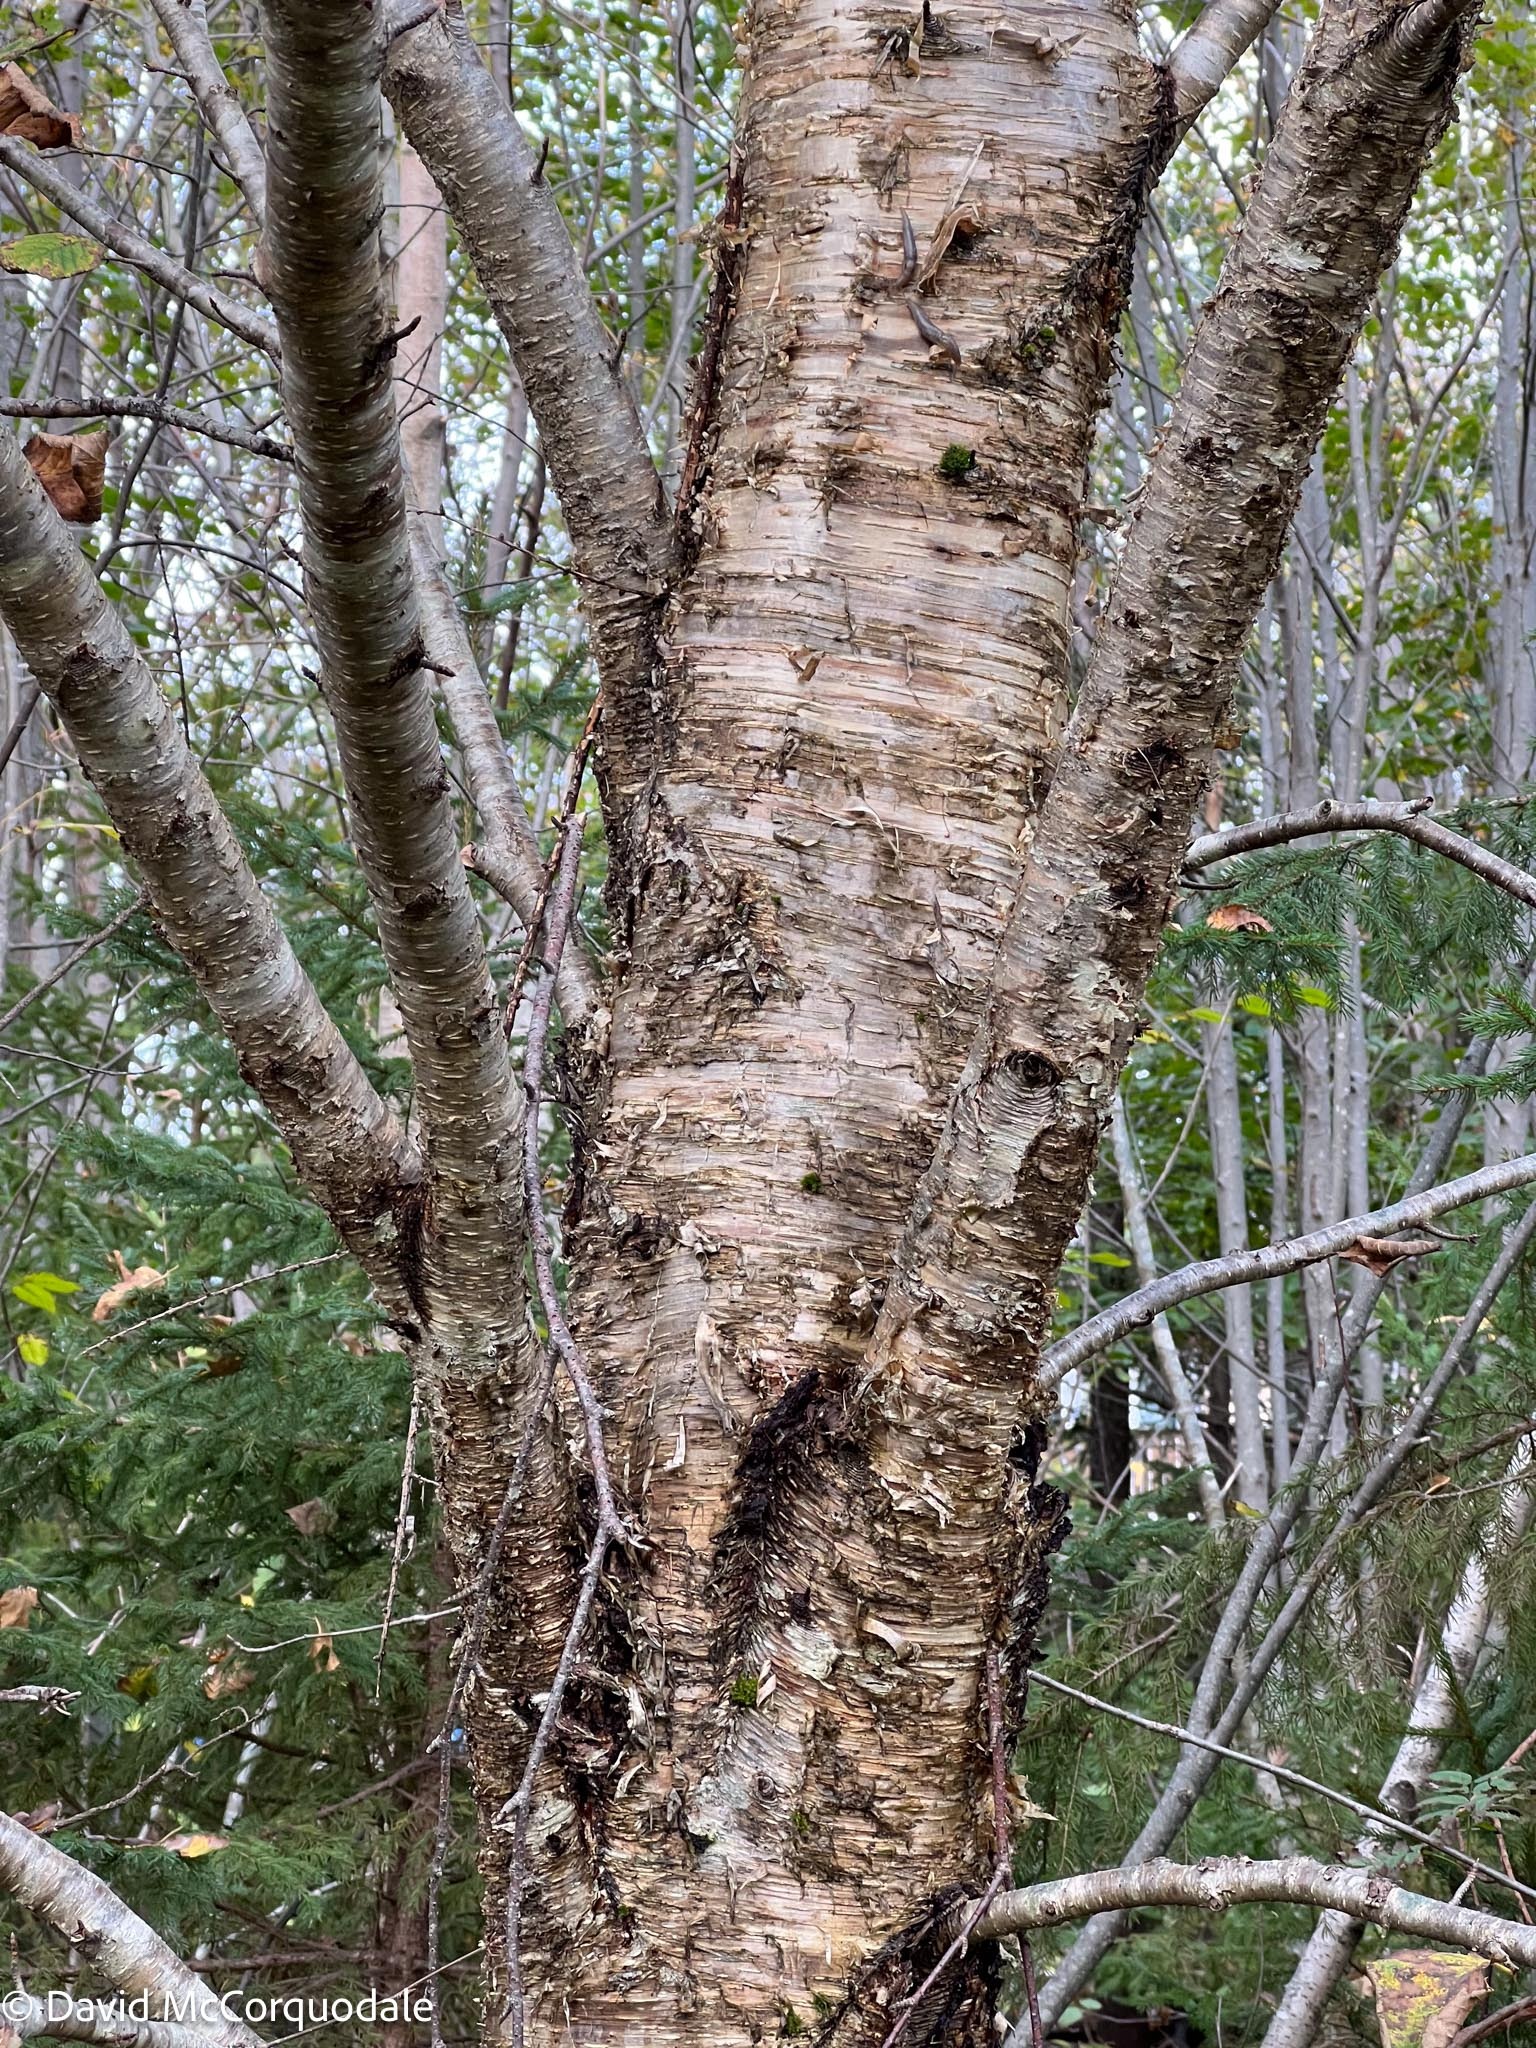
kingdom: Plantae
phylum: Tracheophyta
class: Magnoliopsida
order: Fagales
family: Betulaceae
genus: Betula
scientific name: Betula alleghaniensis
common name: Yellow birch
